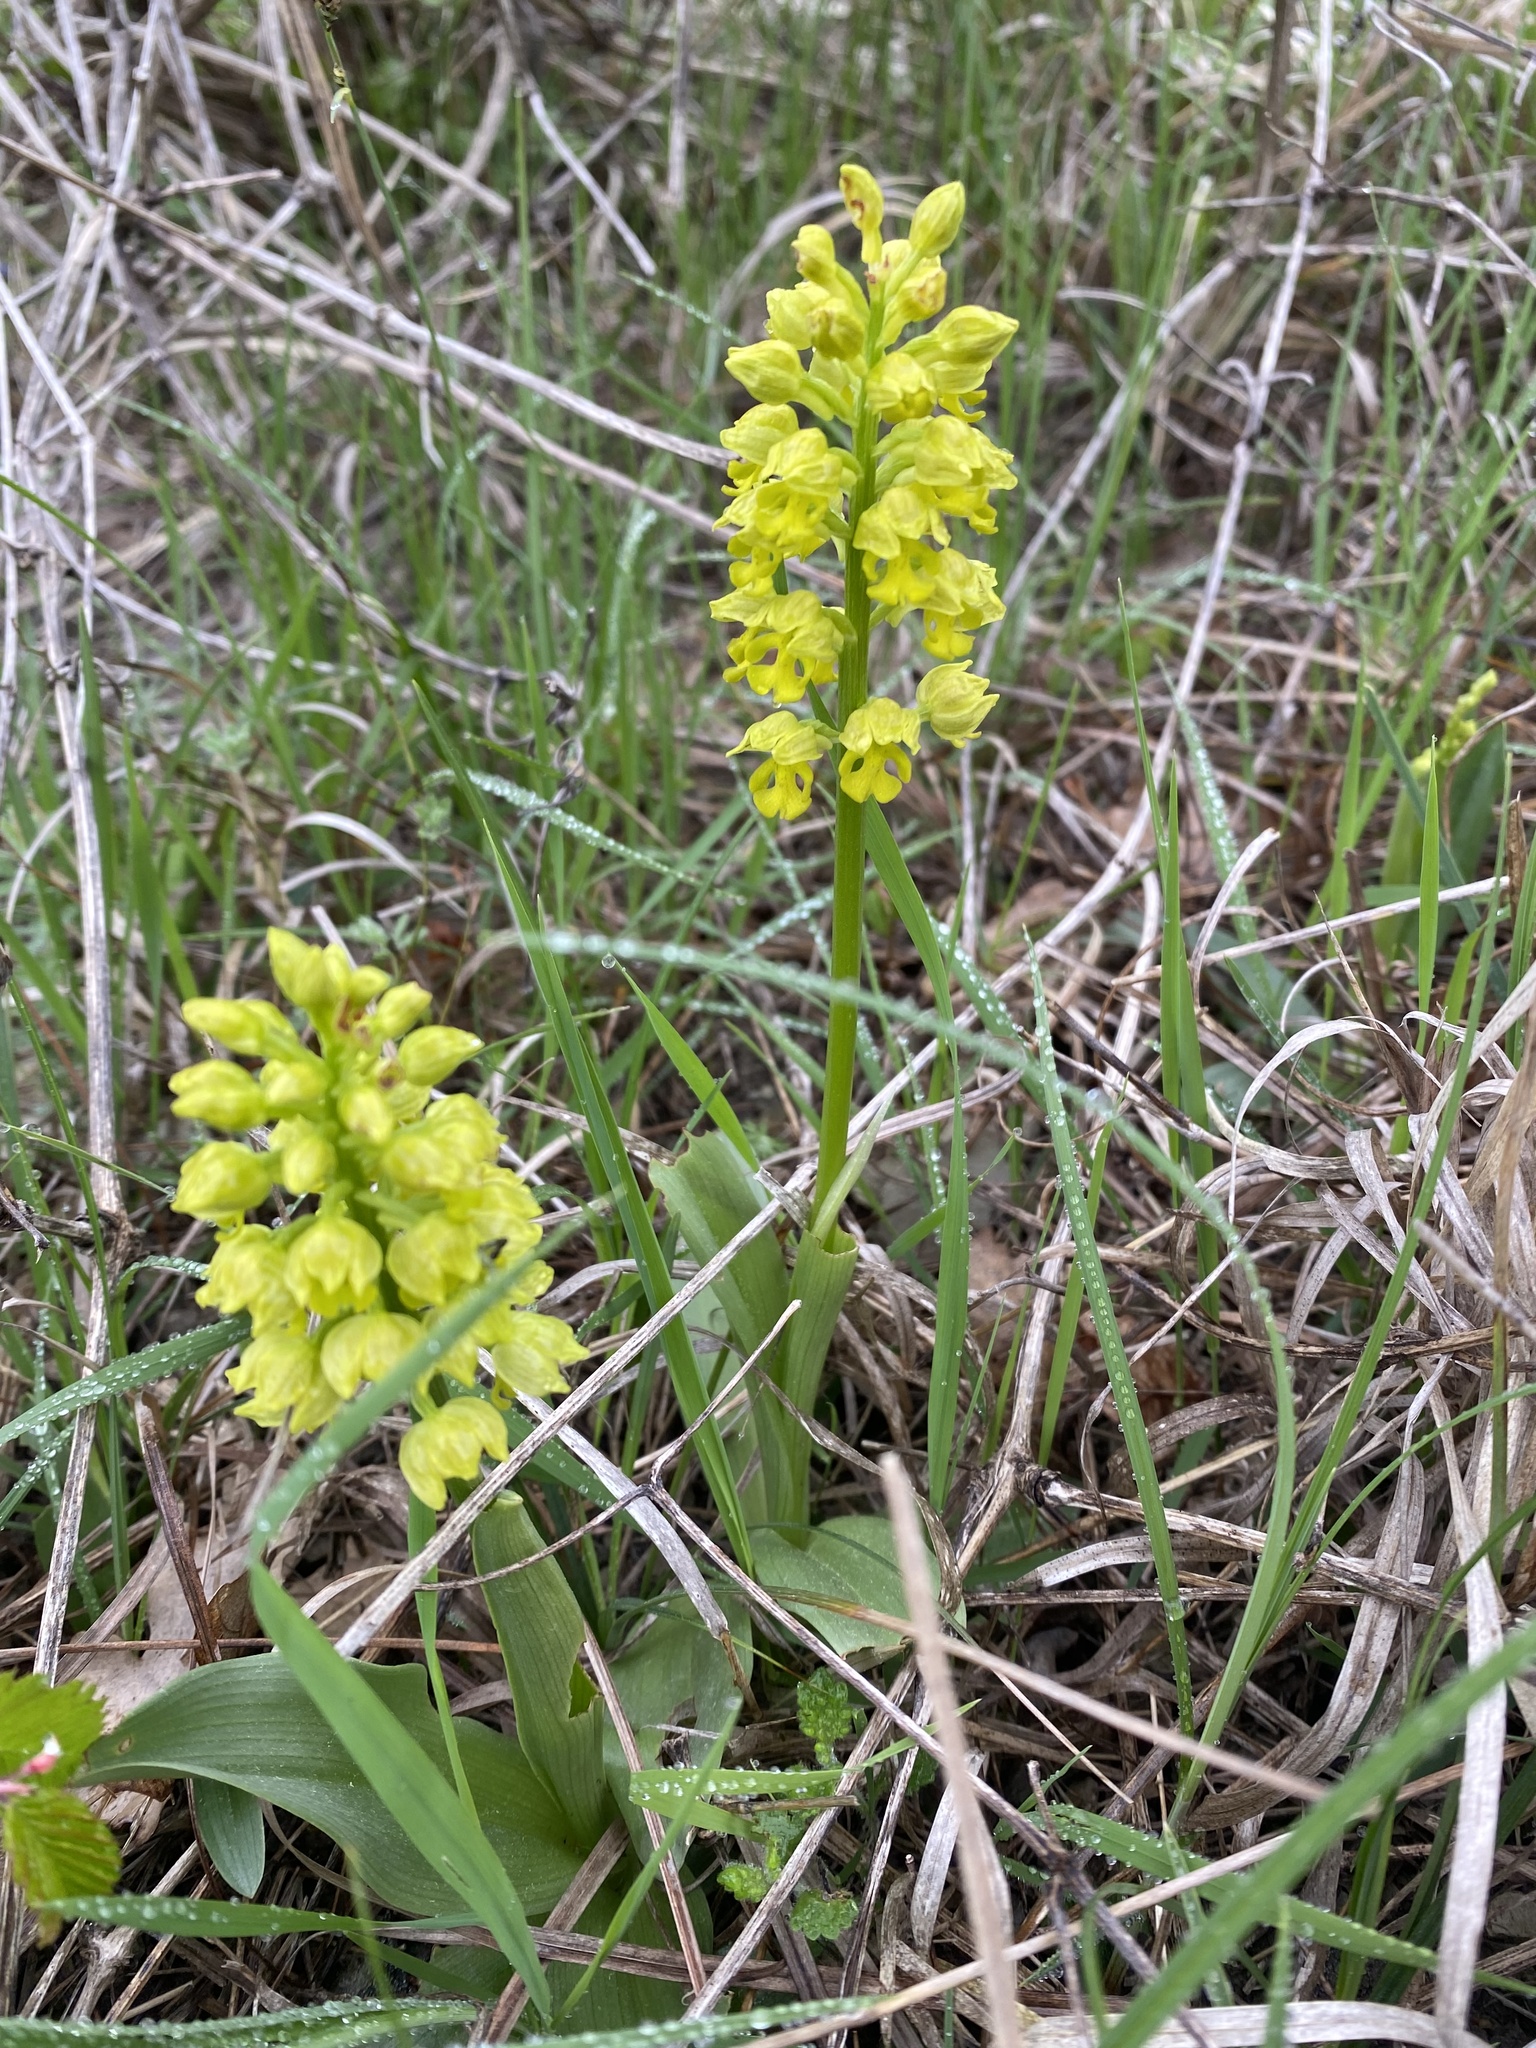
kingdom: Plantae
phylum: Tracheophyta
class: Liliopsida
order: Asparagales
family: Orchidaceae
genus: Orchis
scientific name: Orchis punctulata
